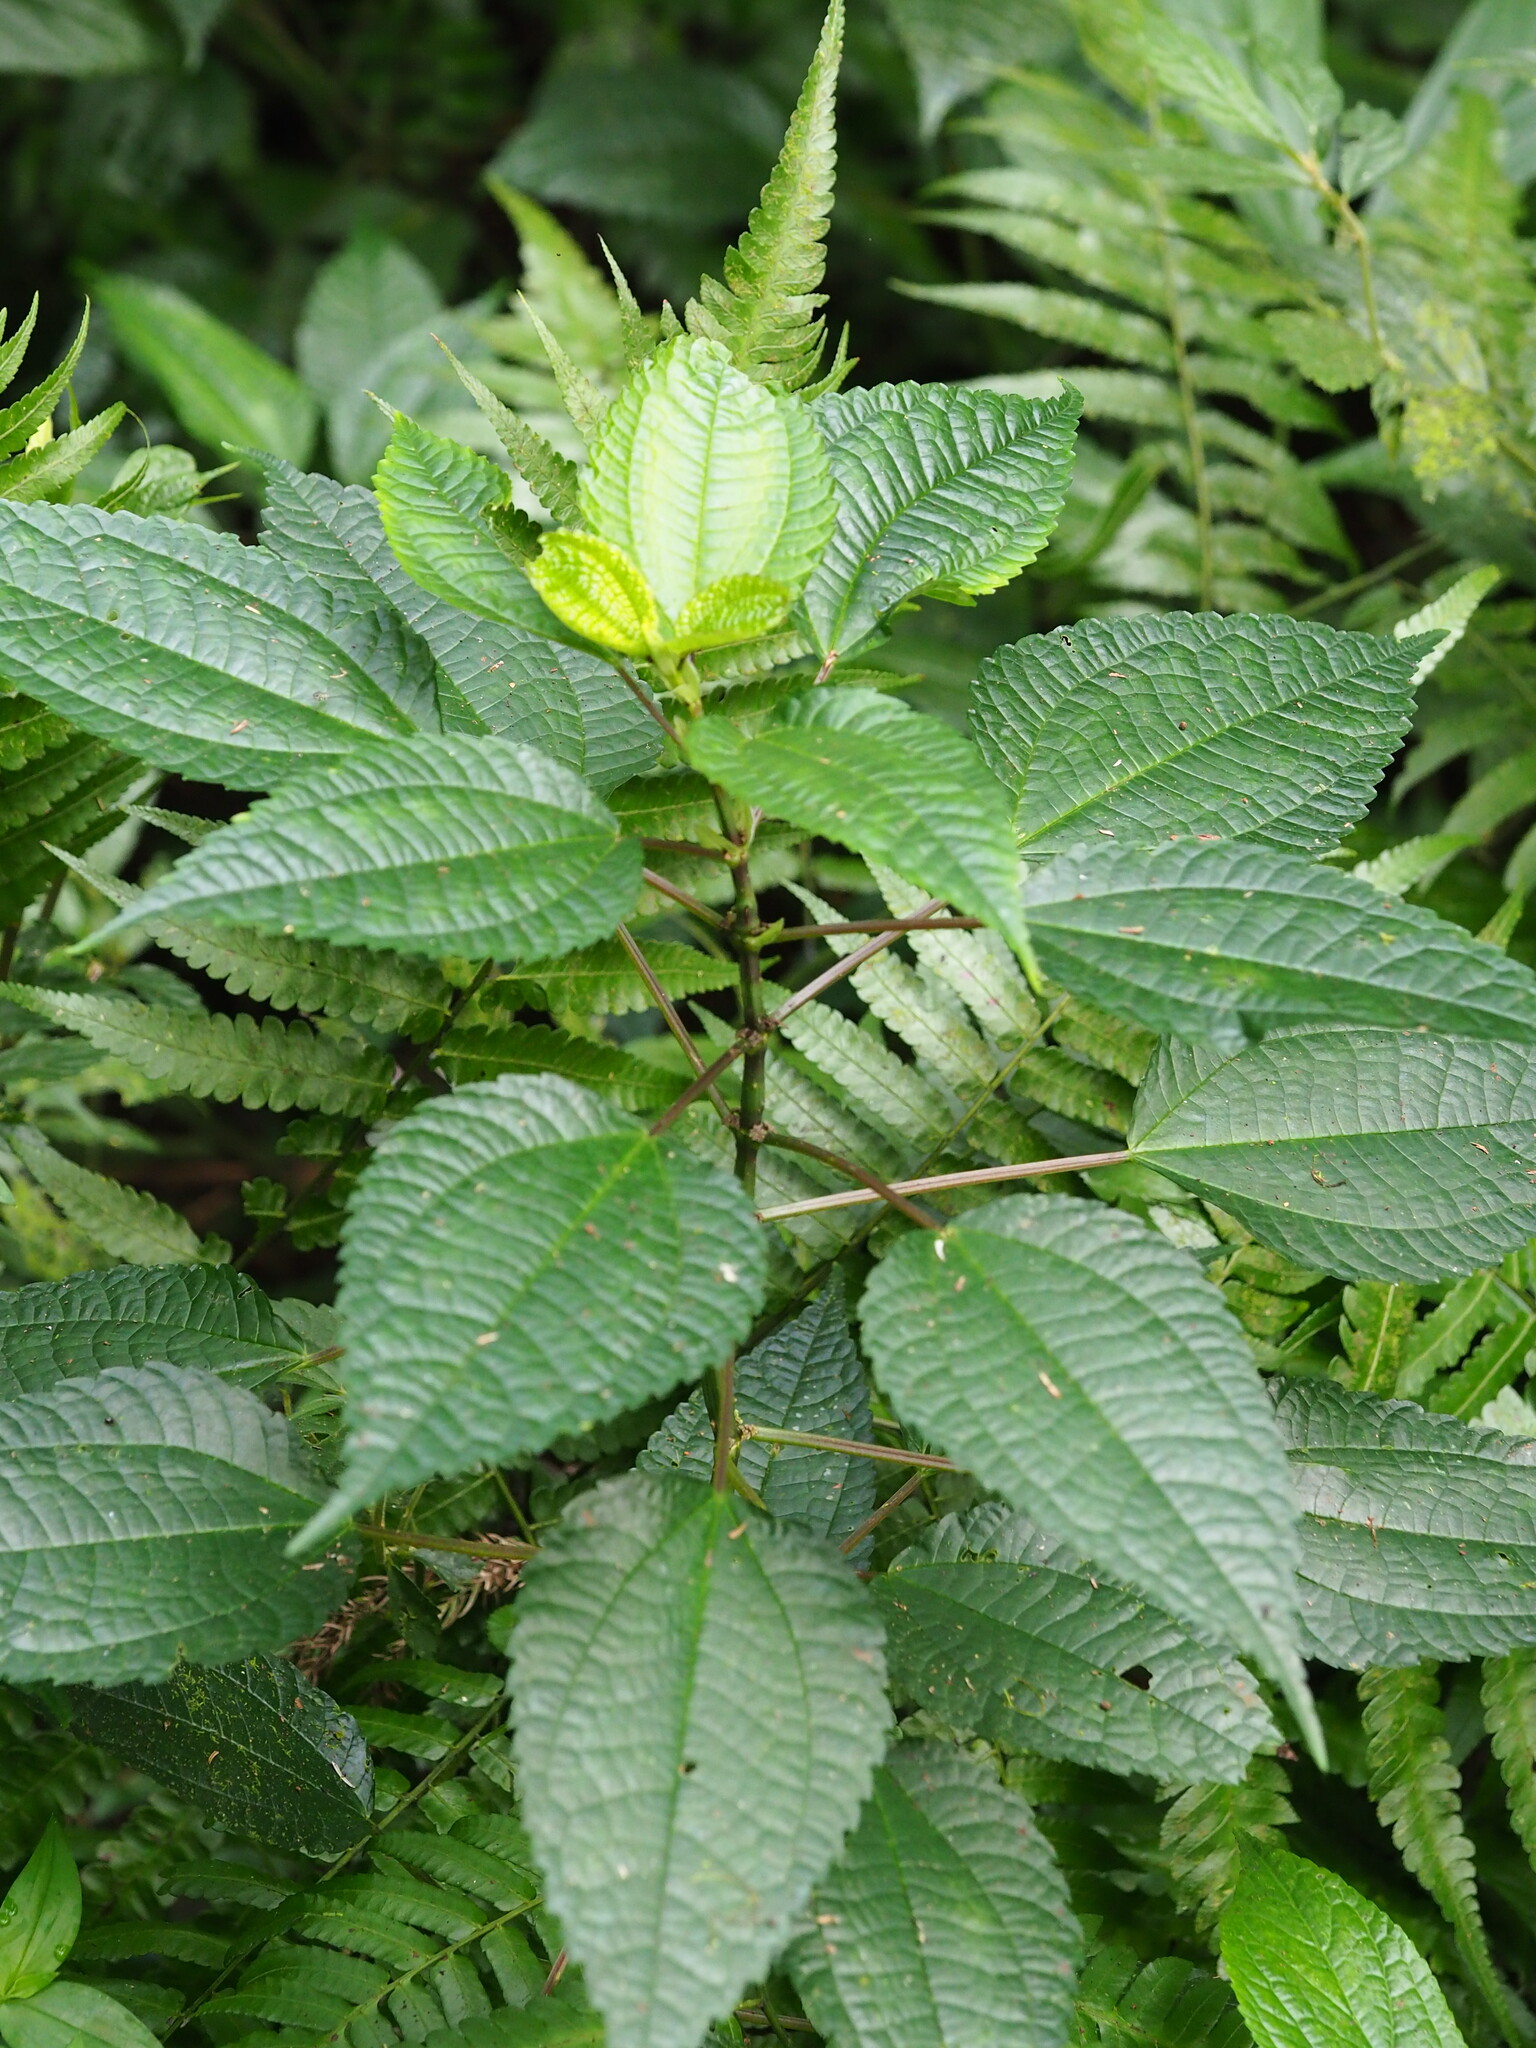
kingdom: Plantae
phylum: Tracheophyta
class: Magnoliopsida
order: Rosales
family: Urticaceae
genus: Pilea
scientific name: Pilea angulata
